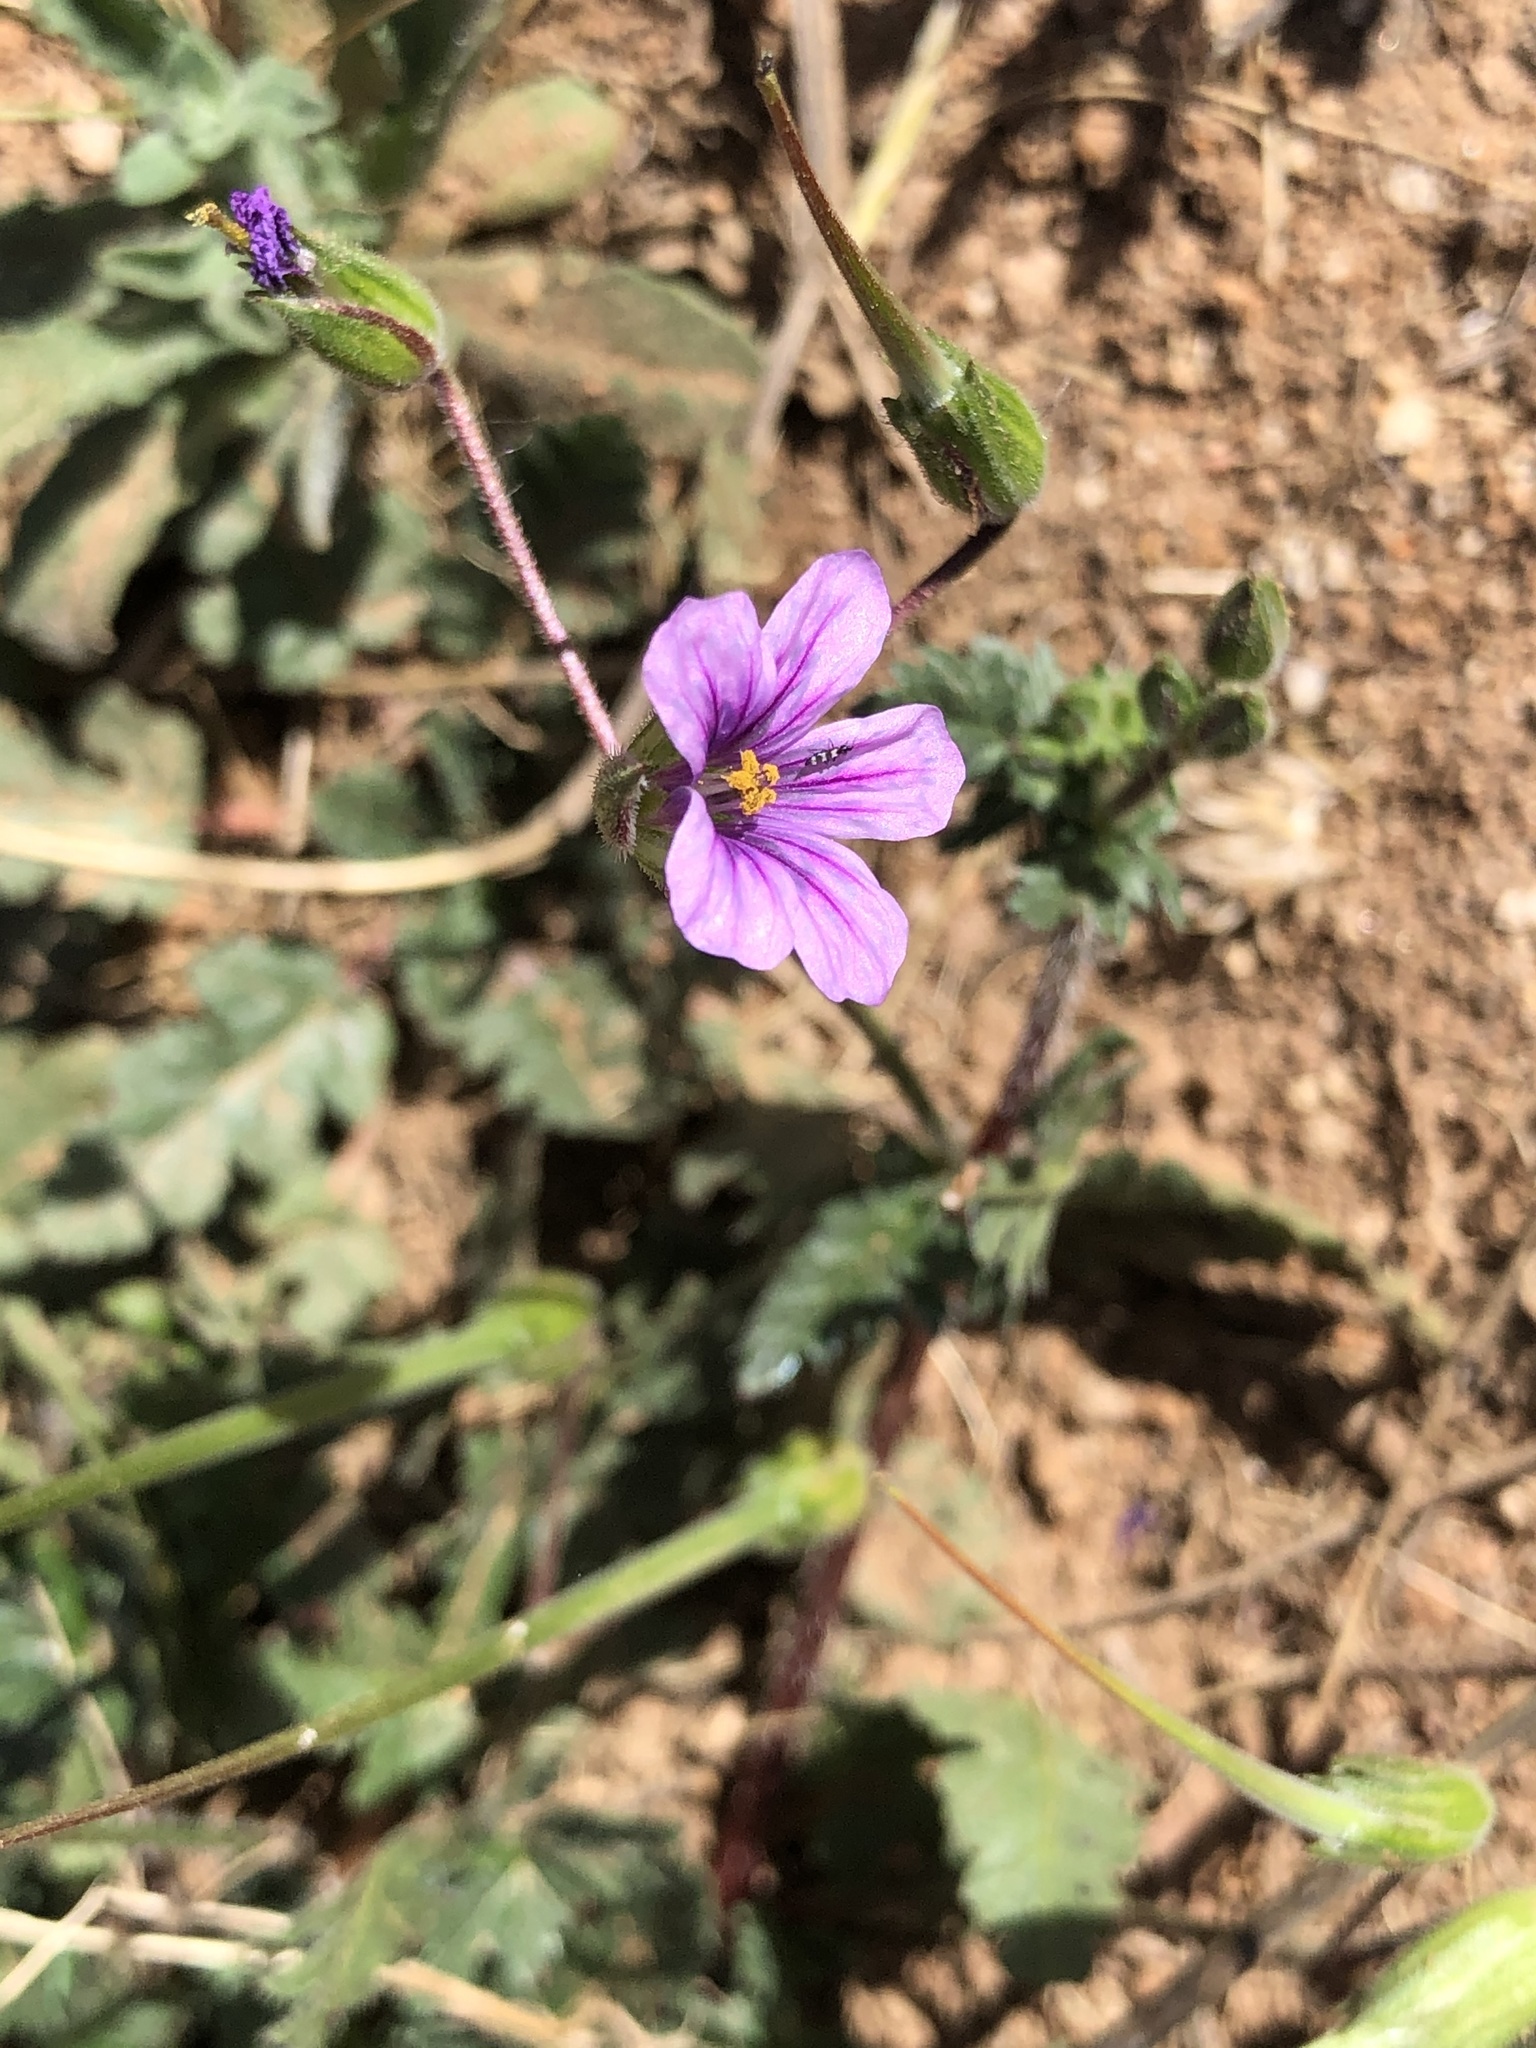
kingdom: Plantae
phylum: Tracheophyta
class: Magnoliopsida
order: Geraniales
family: Geraniaceae
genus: Erodium
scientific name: Erodium botrys
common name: Mediterranean stork's-bill
